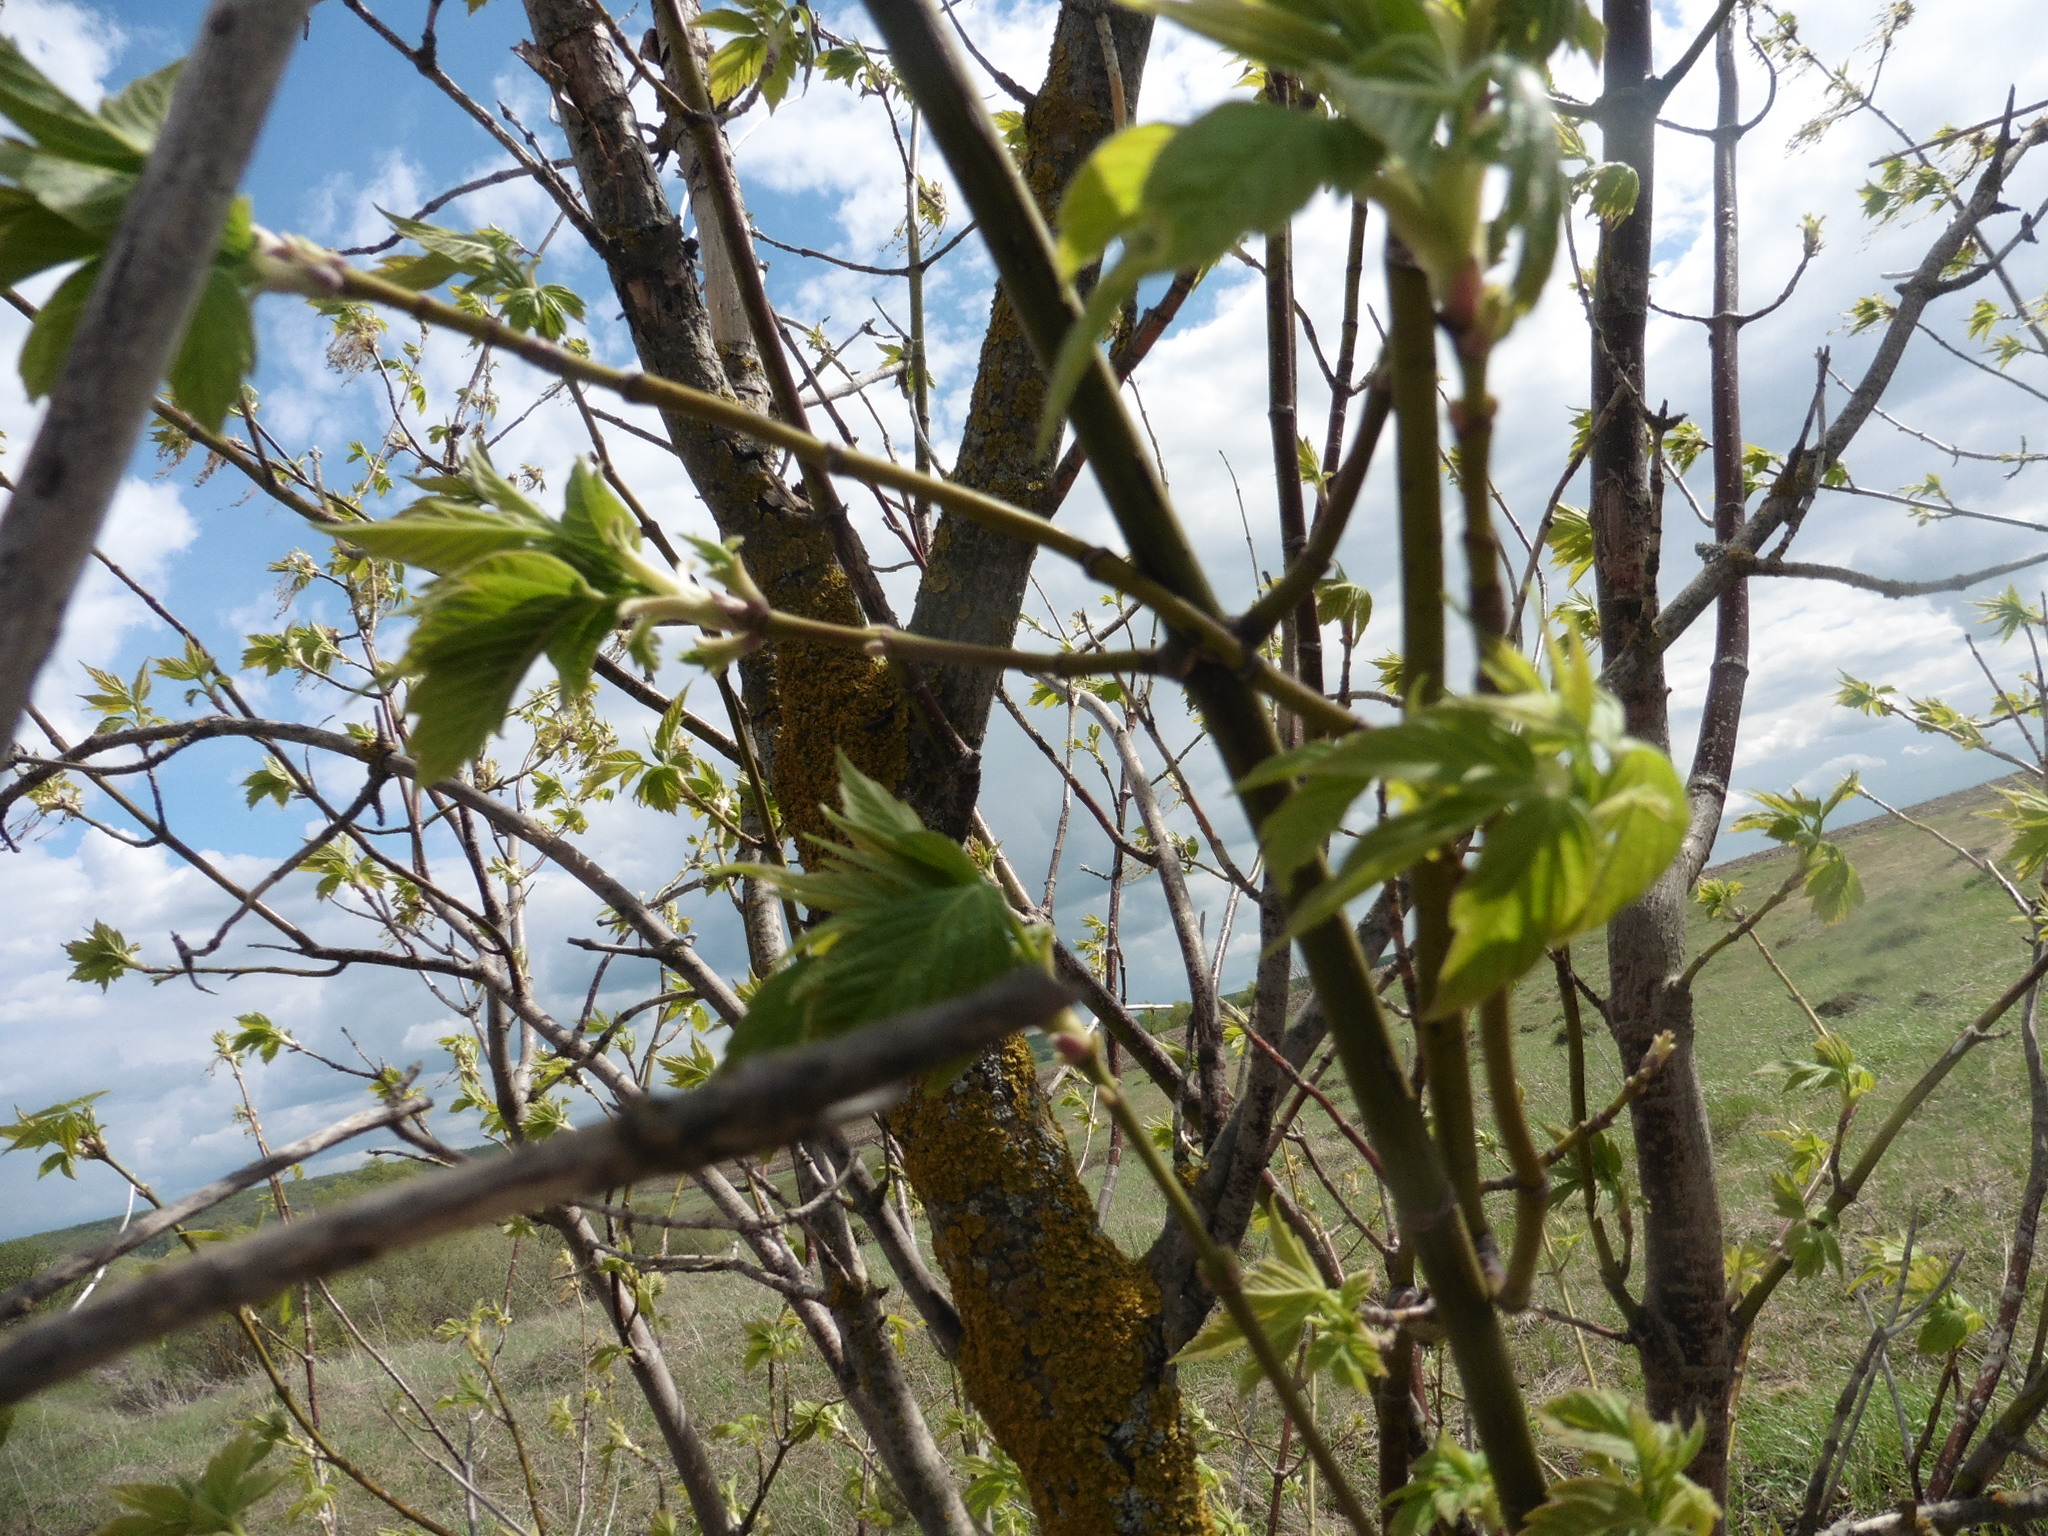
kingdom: Plantae
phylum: Tracheophyta
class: Magnoliopsida
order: Sapindales
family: Sapindaceae
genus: Acer
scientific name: Acer negundo
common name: Ashleaf maple
